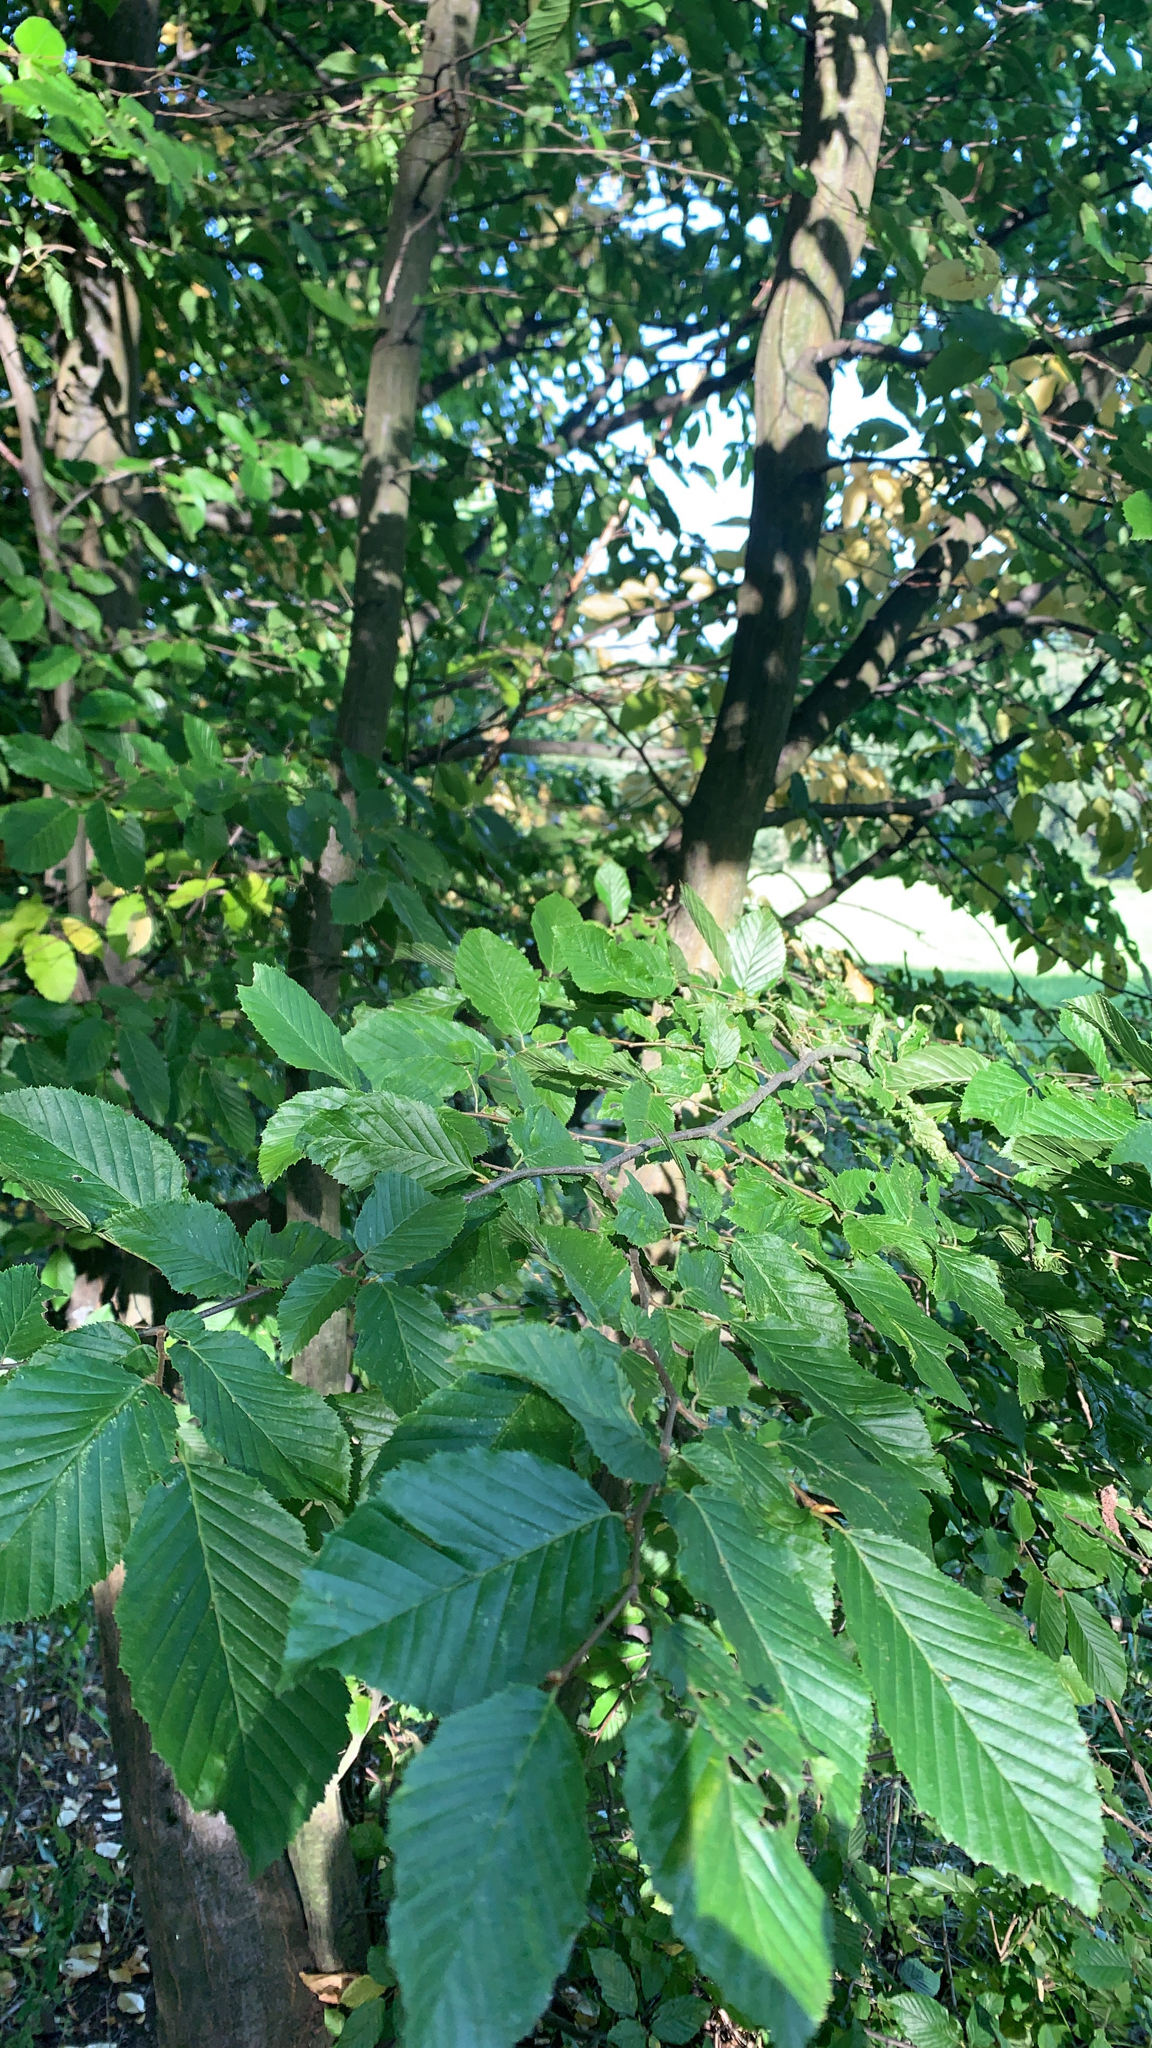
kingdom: Plantae
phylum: Tracheophyta
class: Magnoliopsida
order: Fagales
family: Betulaceae
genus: Carpinus
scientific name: Carpinus betulus
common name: Hornbeam
